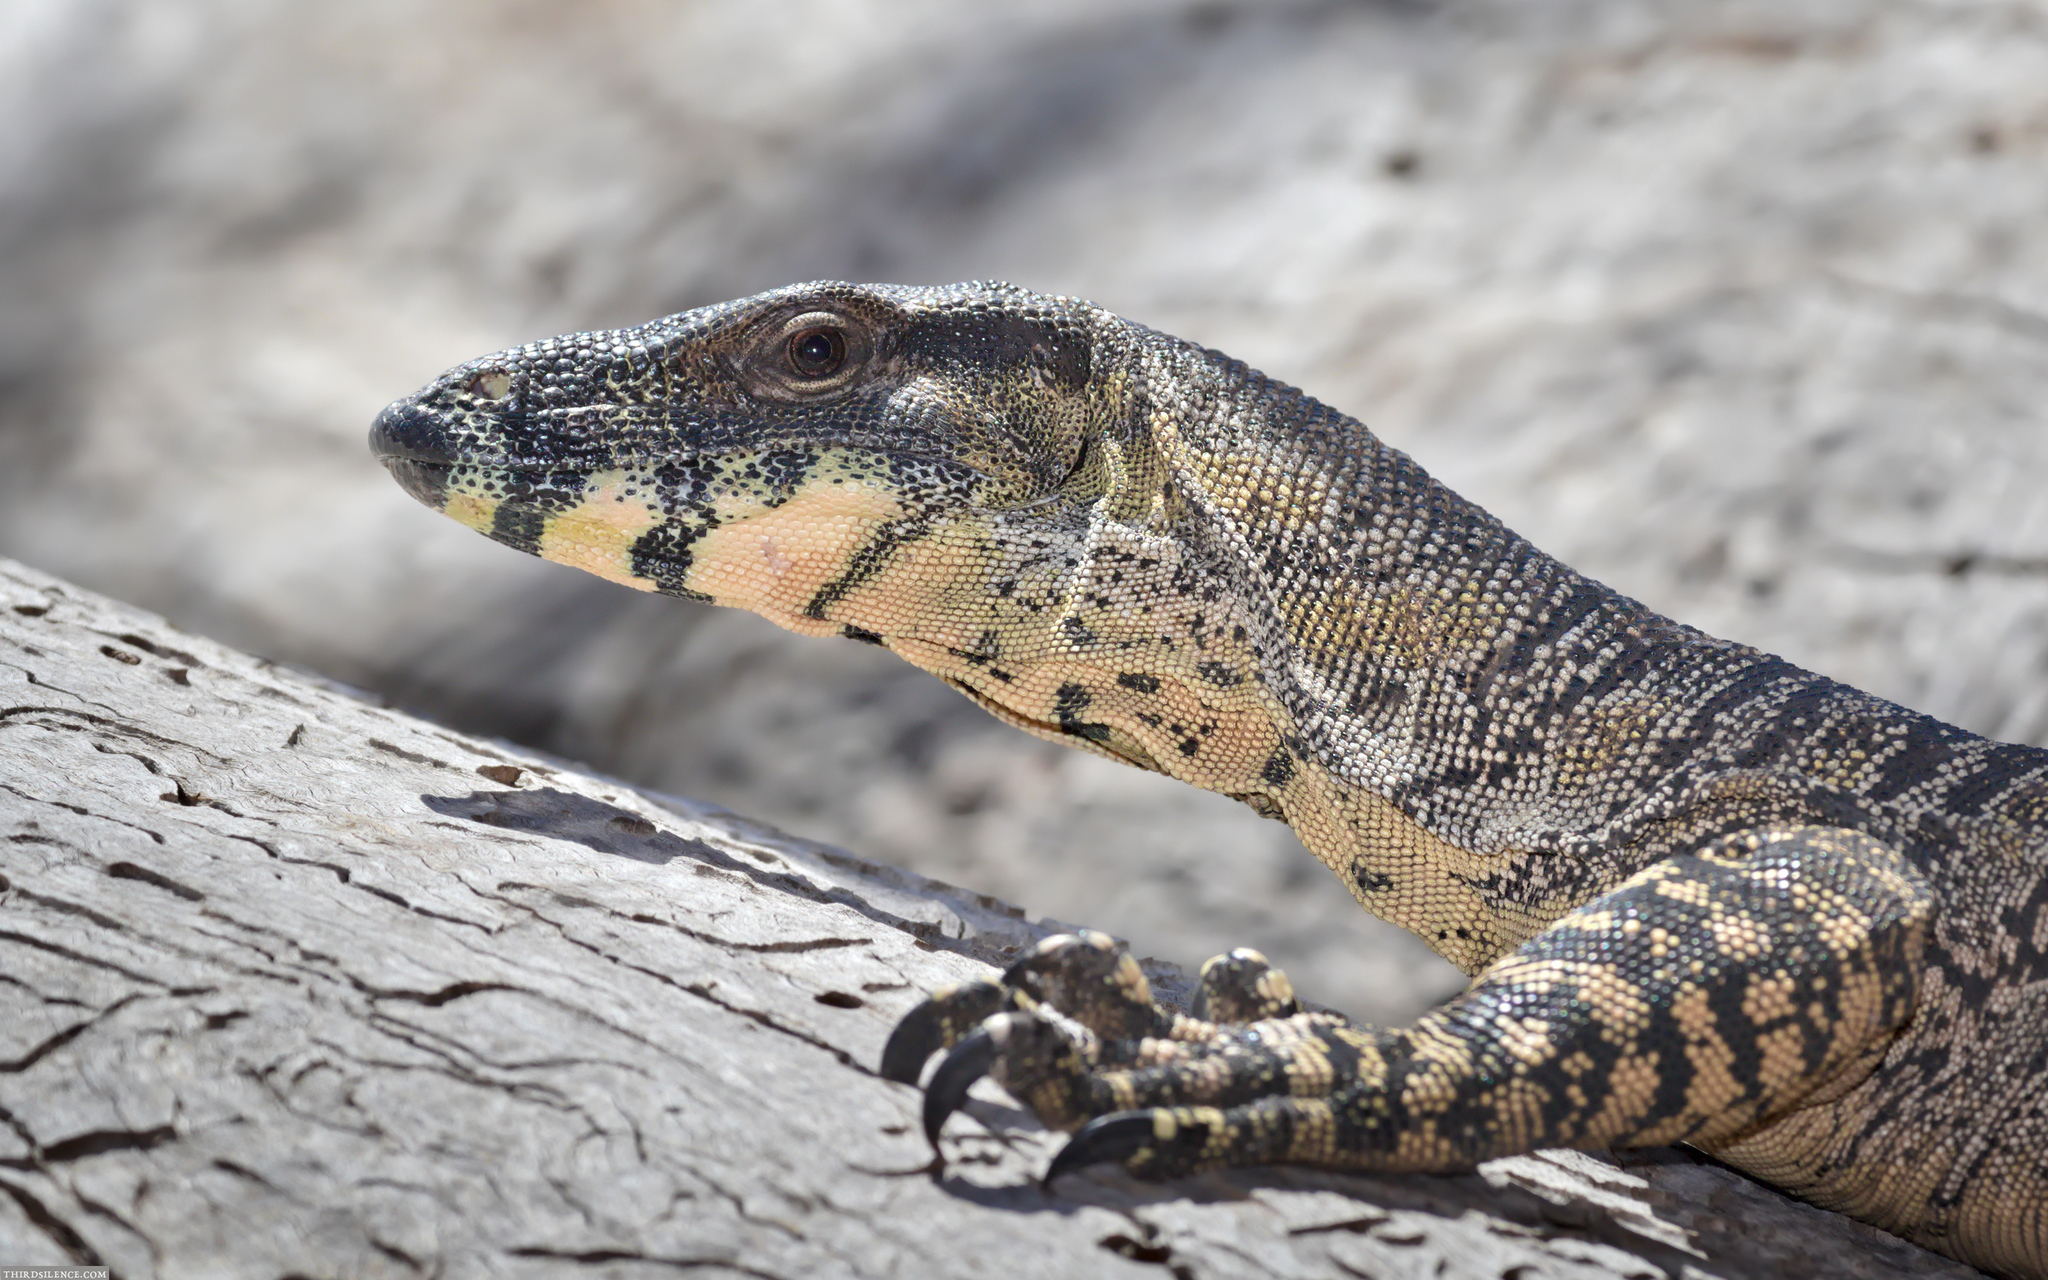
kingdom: Animalia
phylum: Chordata
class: Squamata
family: Varanidae
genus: Varanus
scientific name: Varanus varius
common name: Lace monitor
